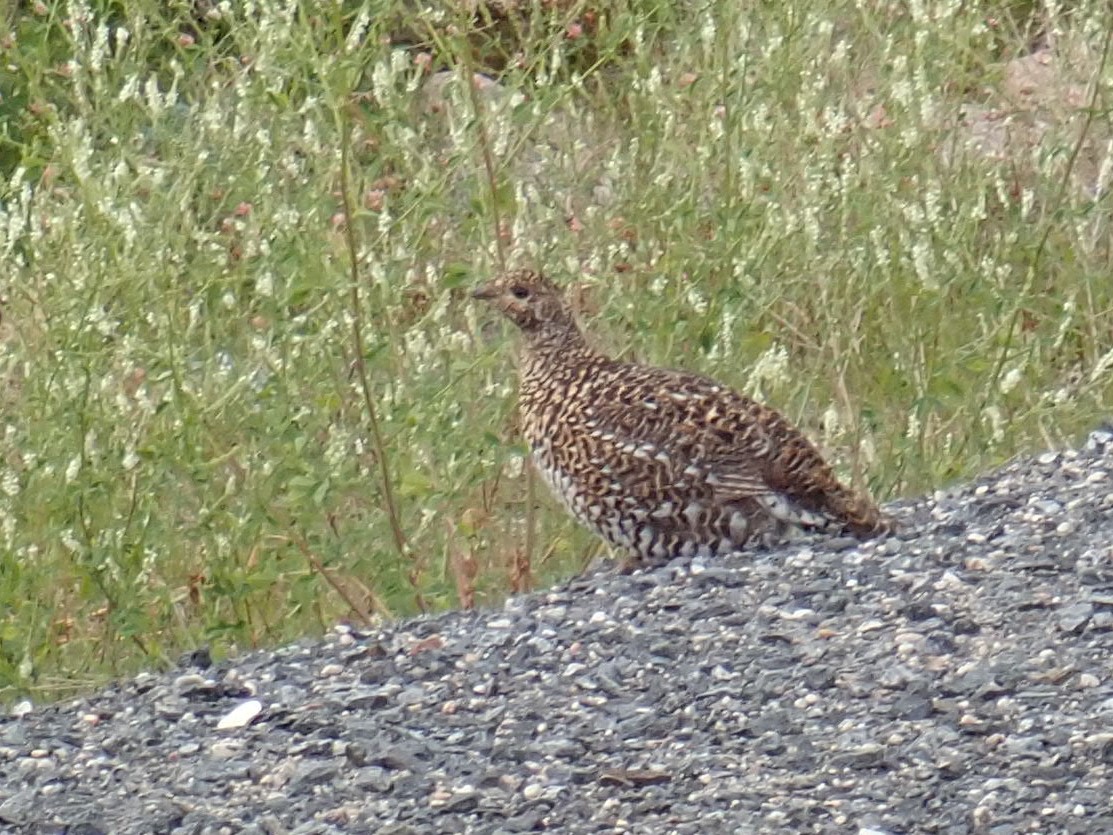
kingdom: Animalia
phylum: Chordata
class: Aves
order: Galliformes
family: Phasianidae
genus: Canachites
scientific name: Canachites canadensis
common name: Spruce grouse
